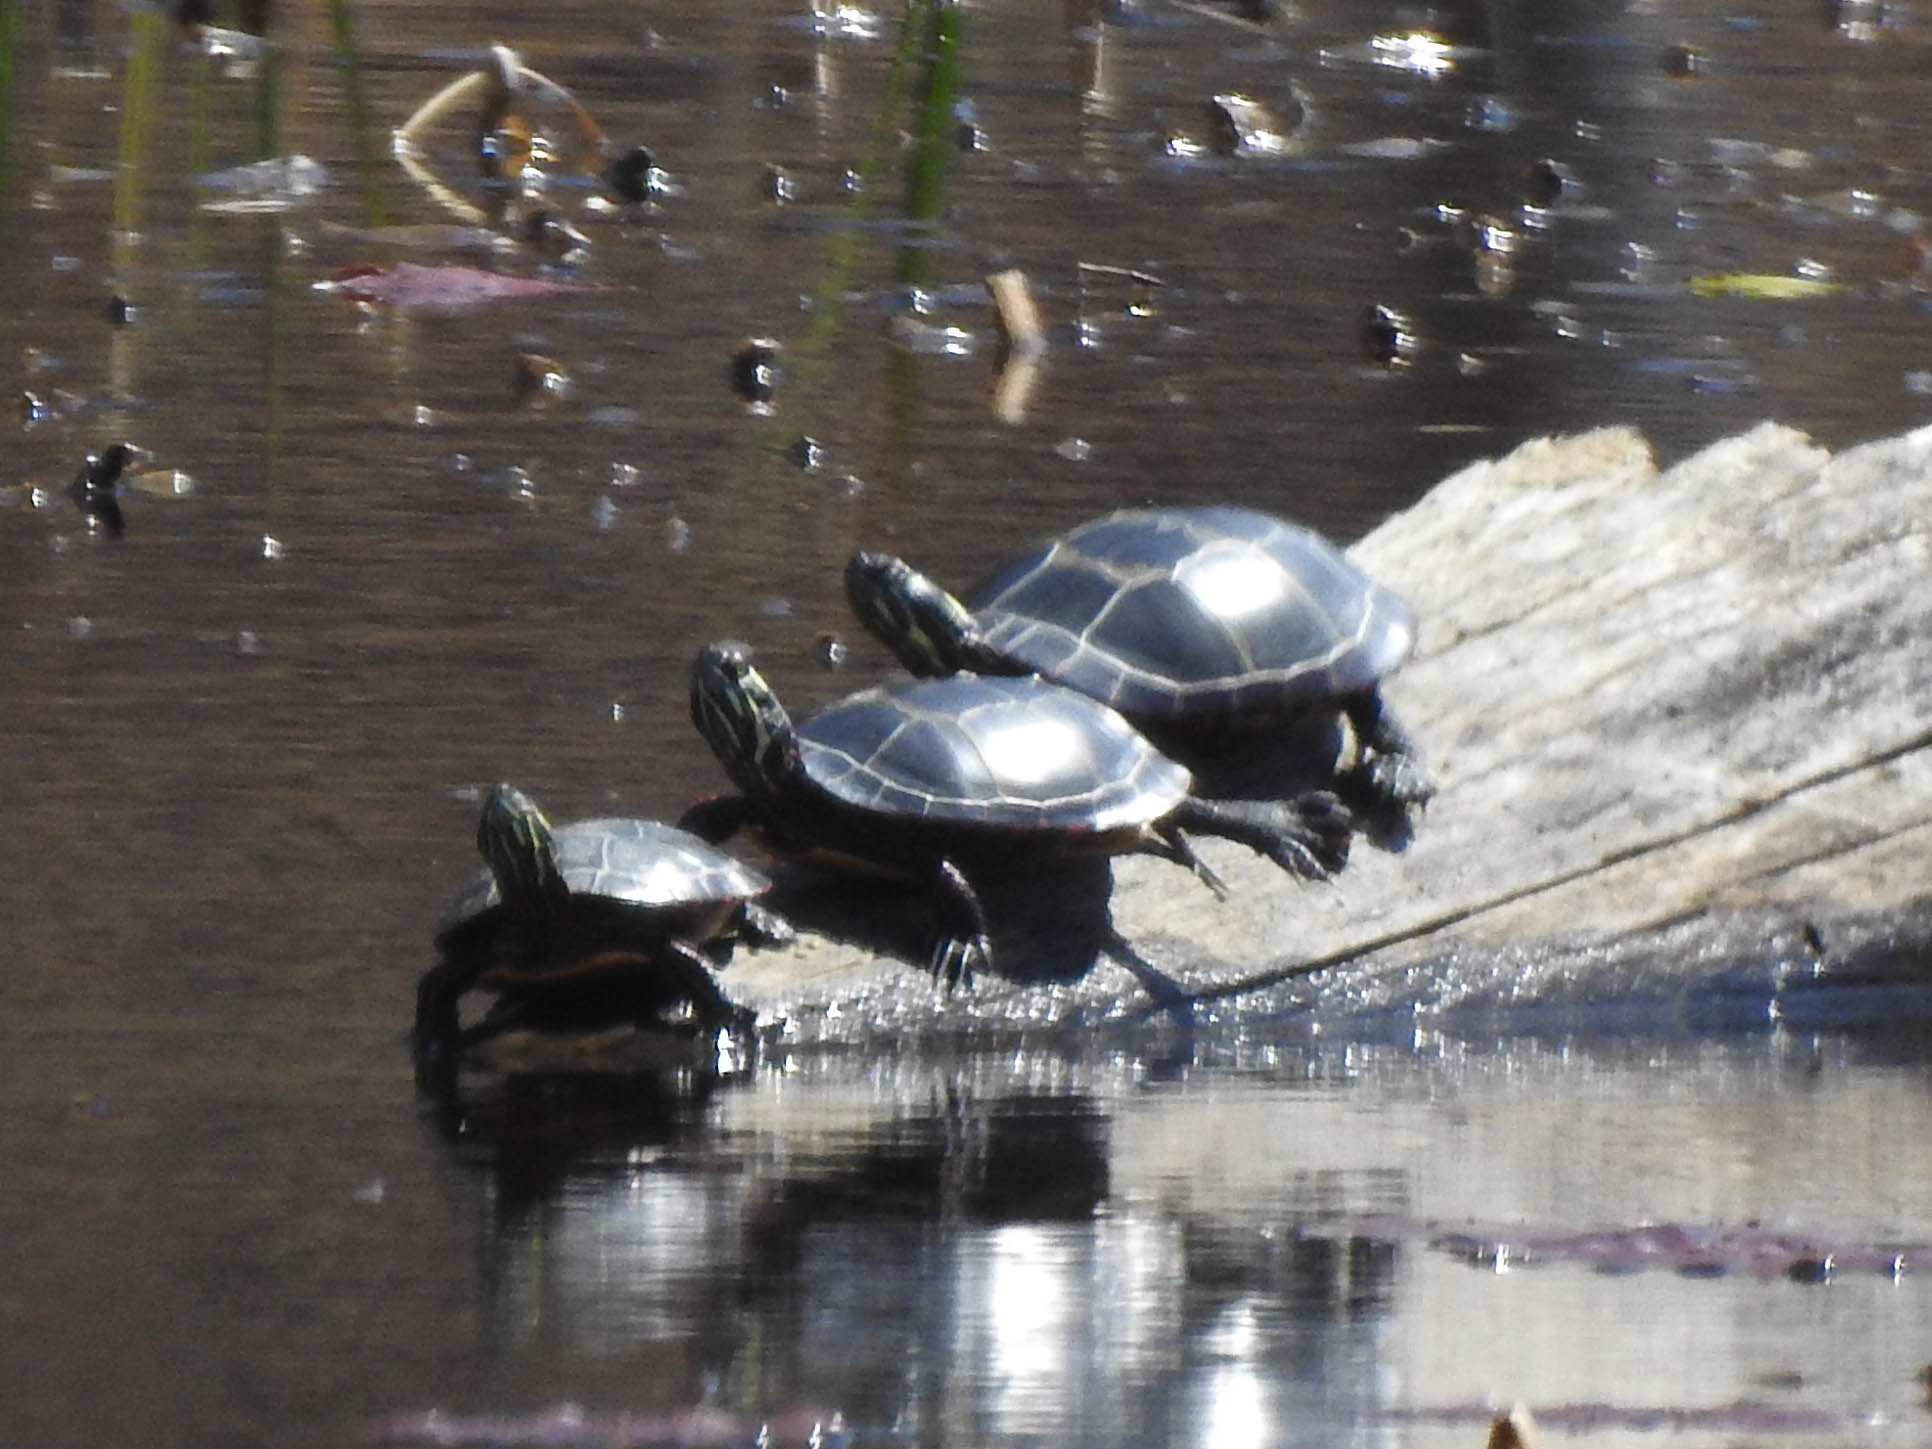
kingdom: Animalia
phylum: Chordata
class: Testudines
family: Emydidae
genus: Chrysemys
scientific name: Chrysemys picta
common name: Painted turtle
